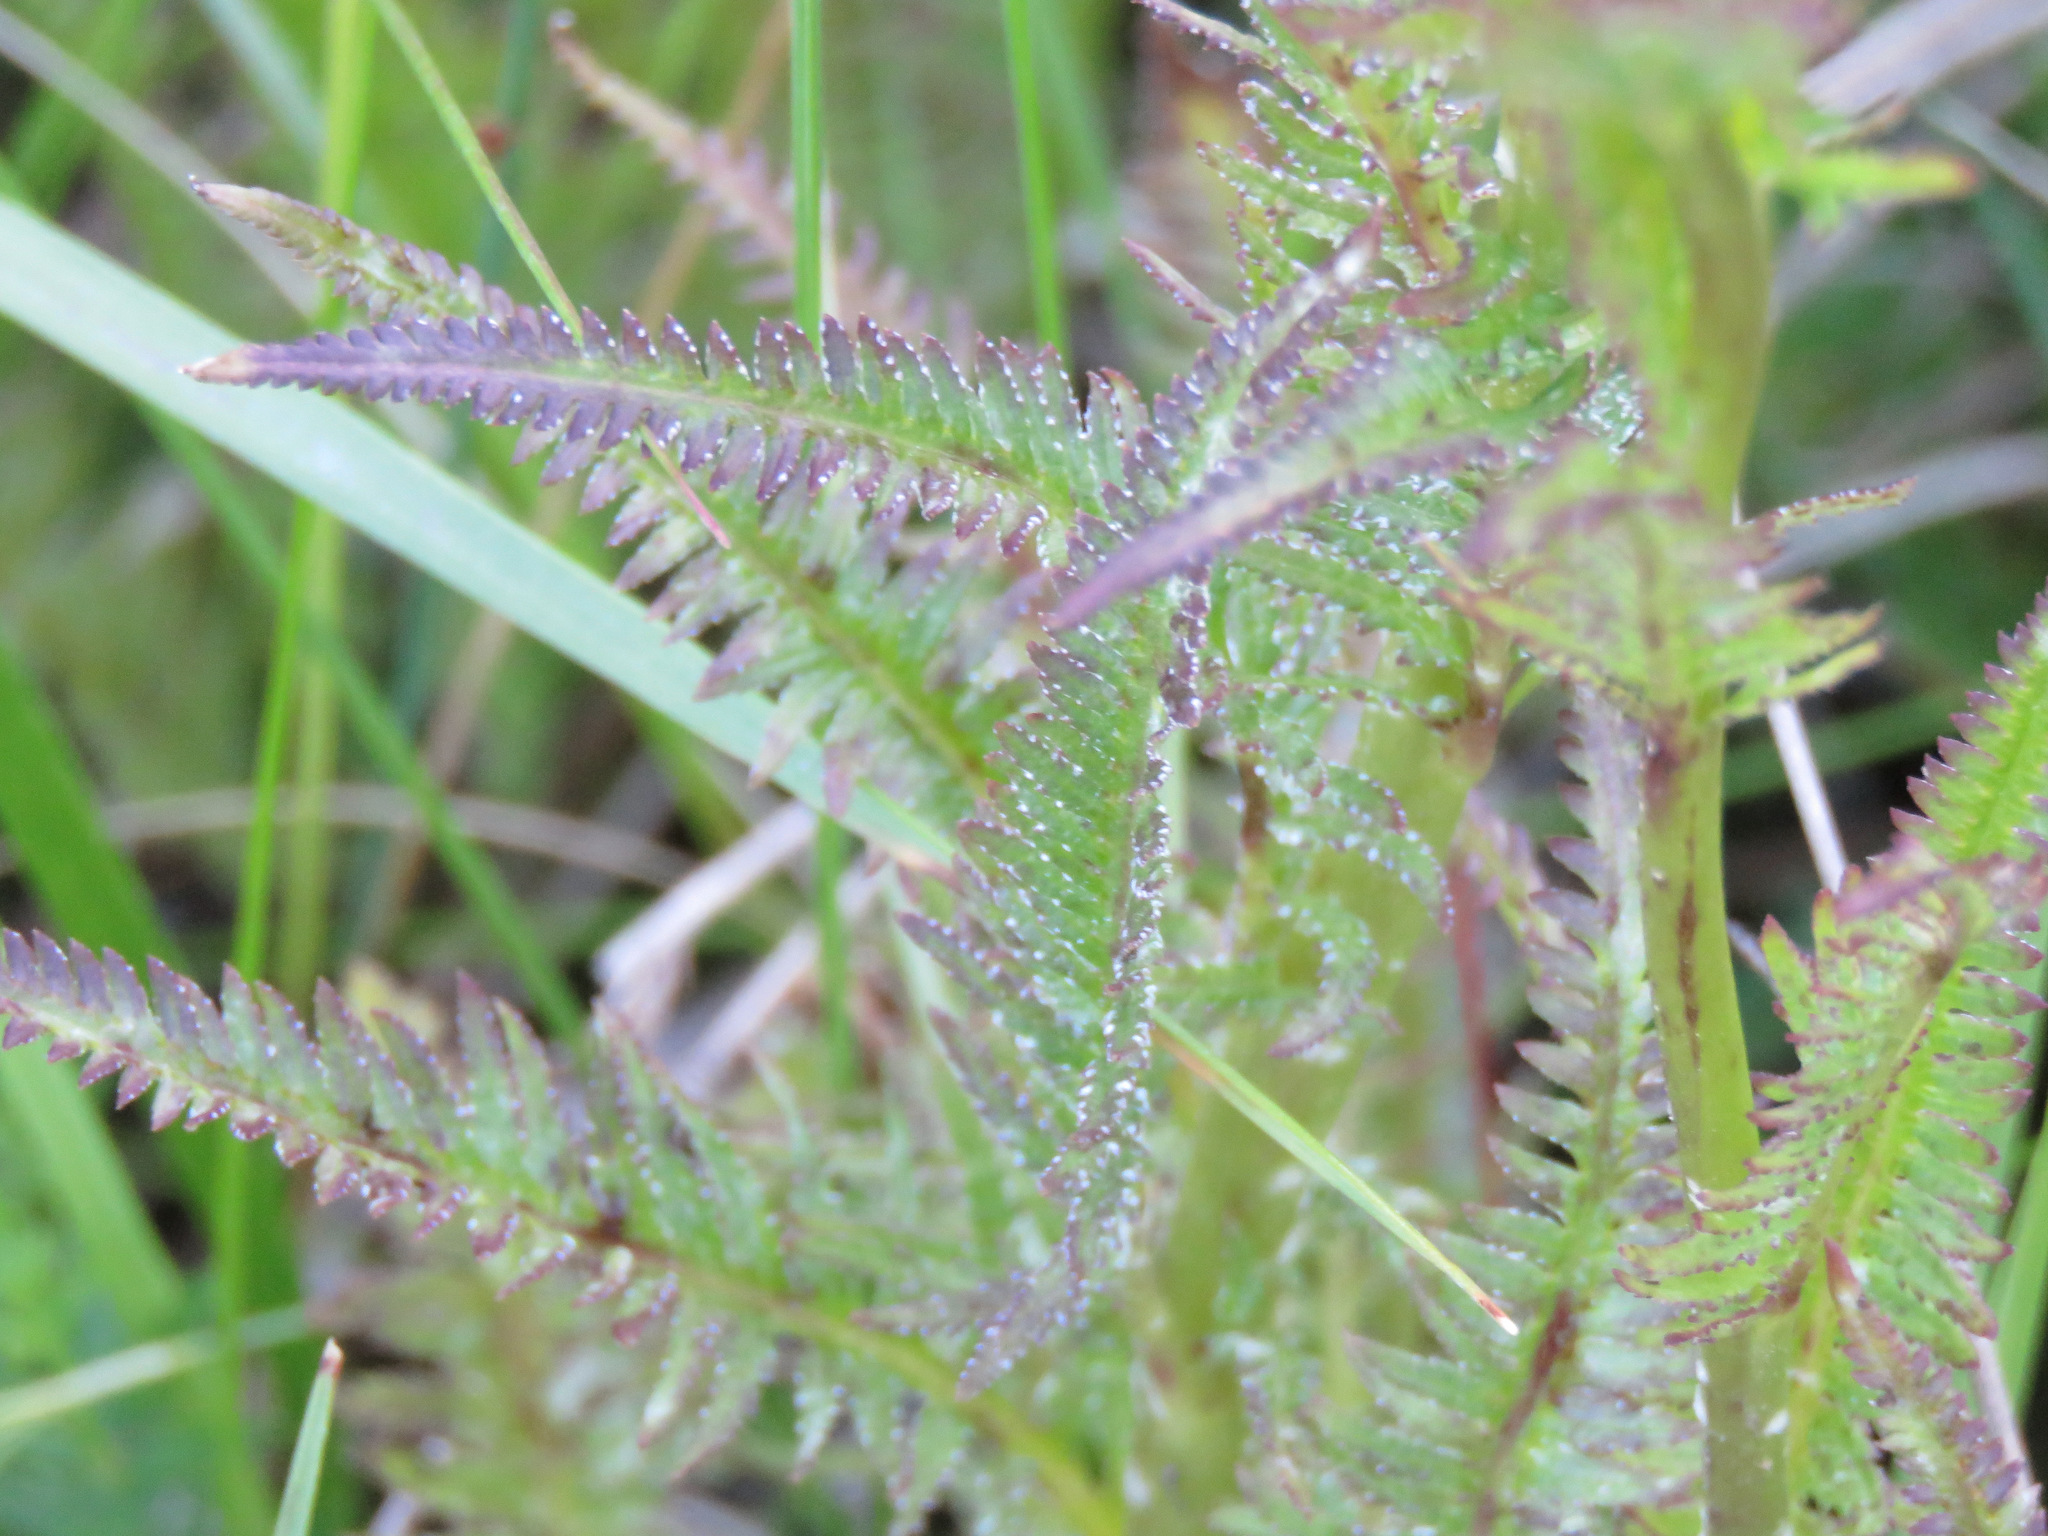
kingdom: Plantae
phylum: Tracheophyta
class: Magnoliopsida
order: Lamiales
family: Orobanchaceae
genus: Pedicularis
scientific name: Pedicularis groenlandica
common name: Elephant's-head
